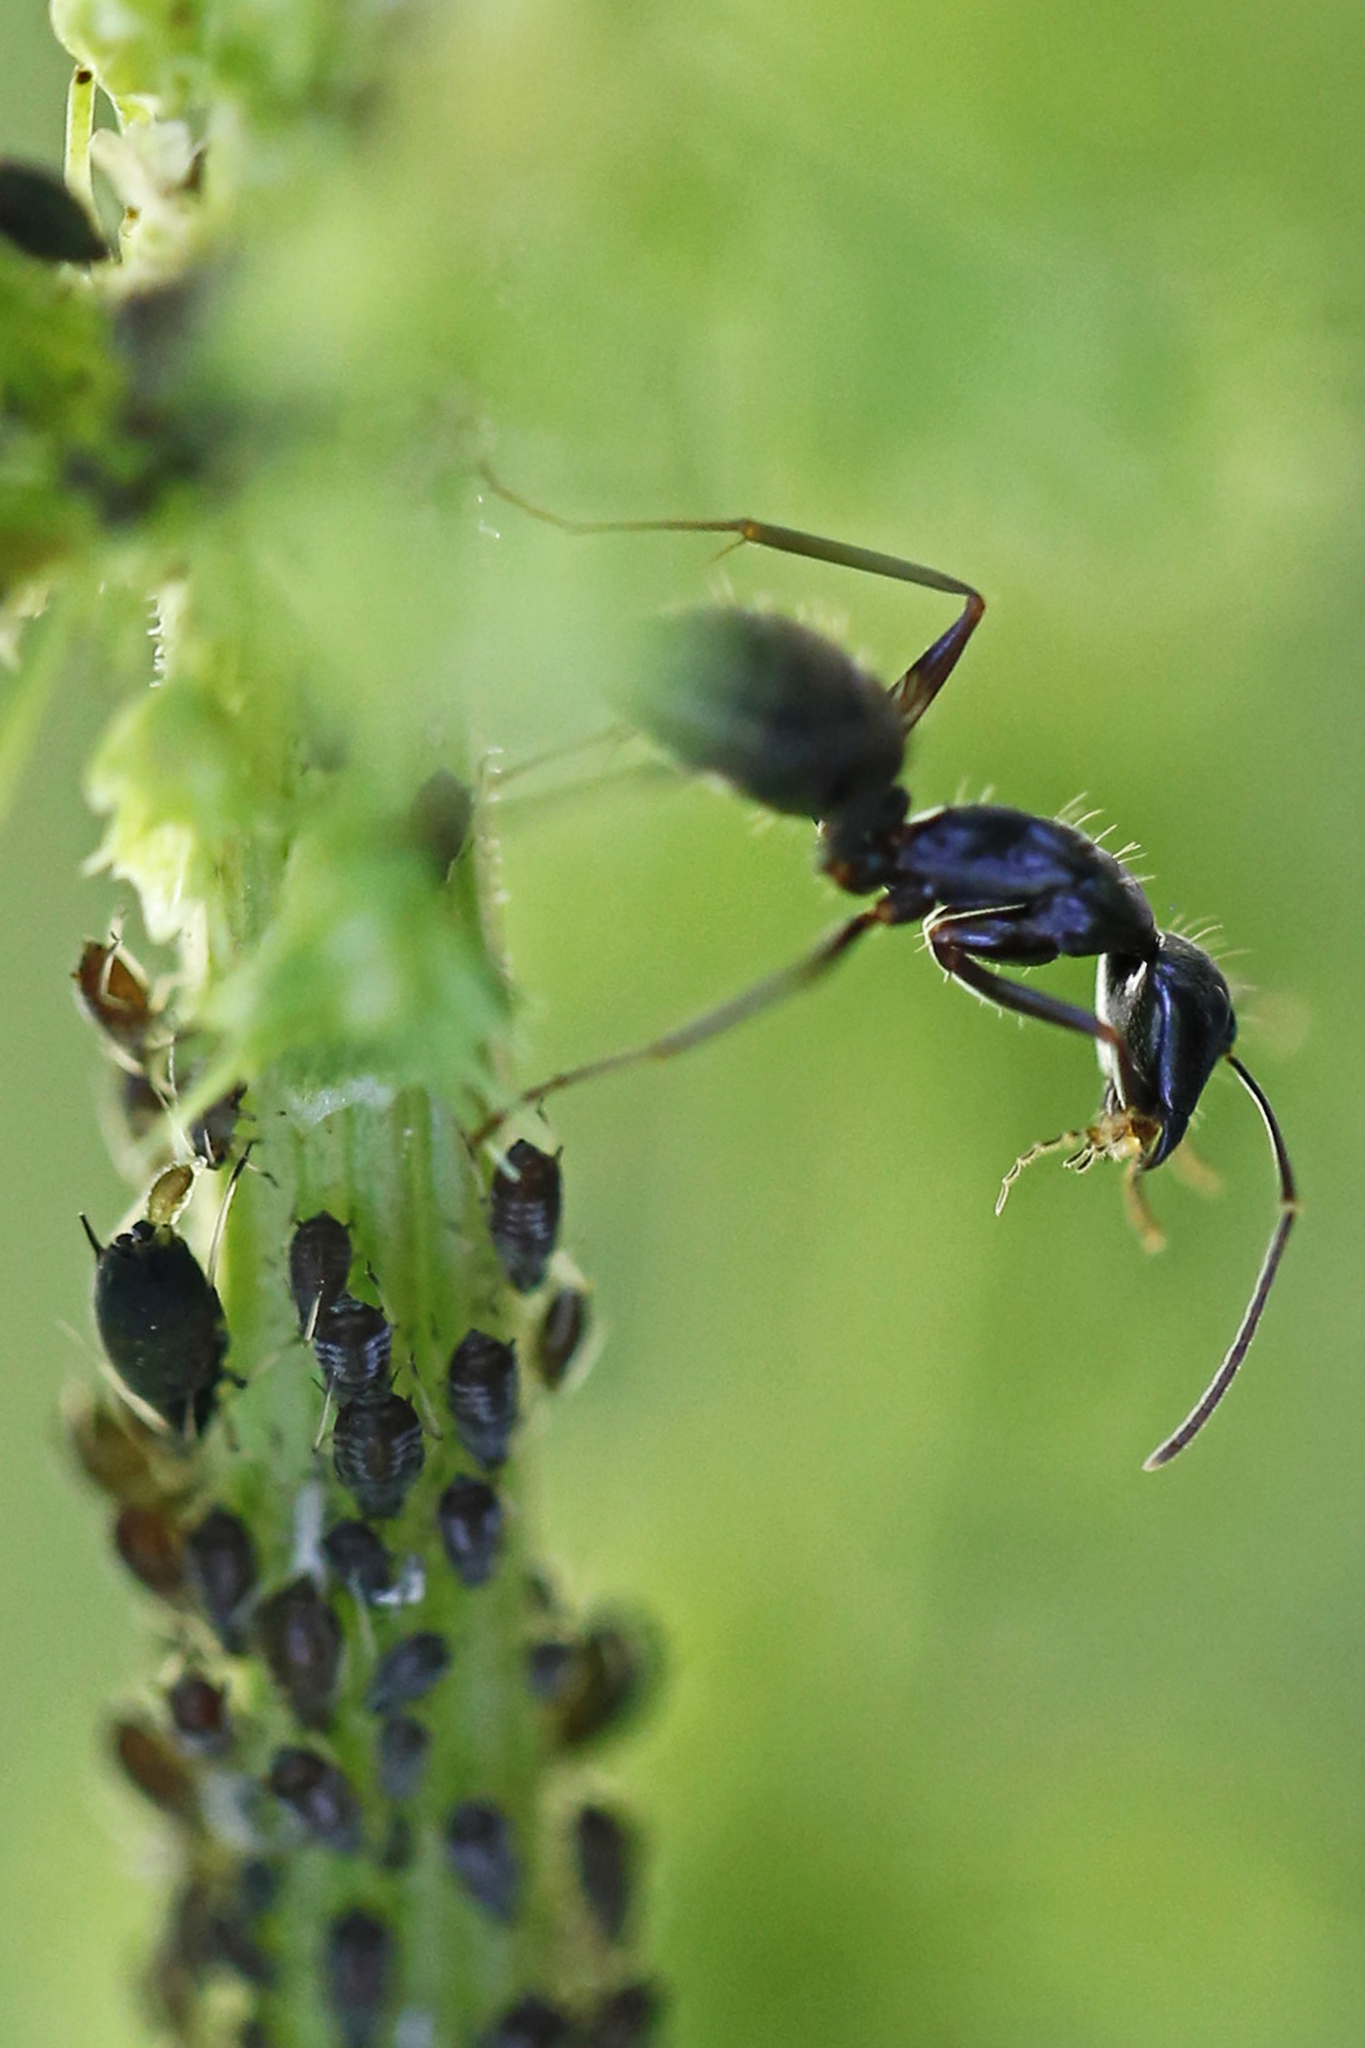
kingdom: Animalia
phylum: Arthropoda
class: Insecta
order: Hymenoptera
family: Formicidae
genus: Camponotus
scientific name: Camponotus pennsylvanicus
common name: Black carpenter ant
